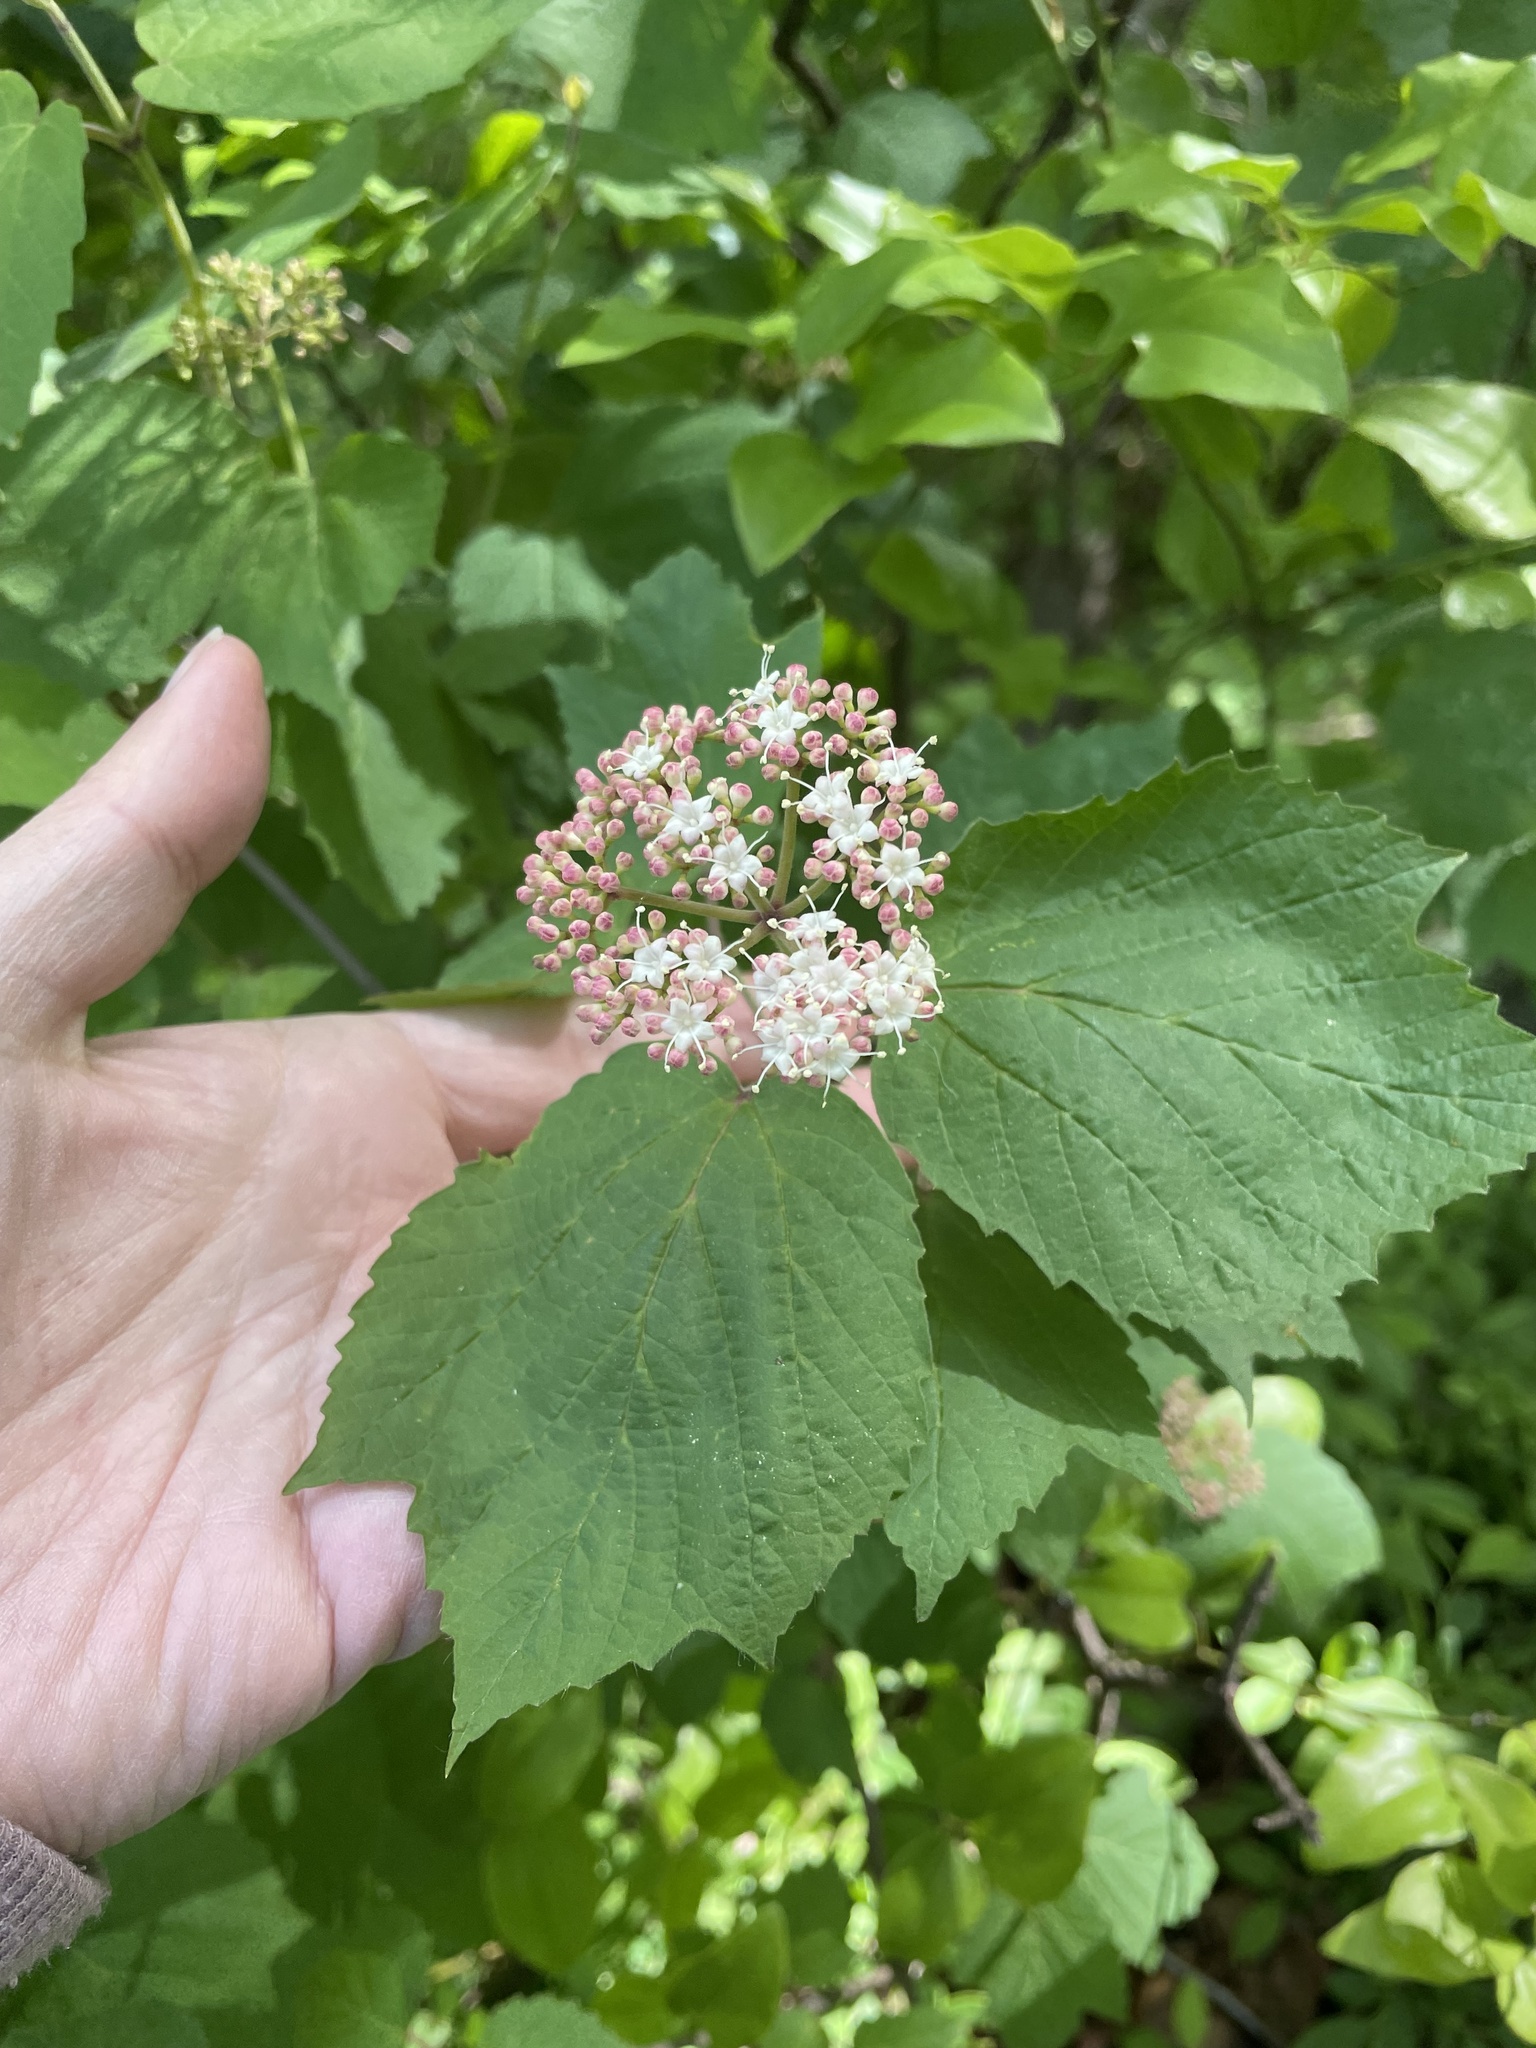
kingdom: Plantae
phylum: Tracheophyta
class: Magnoliopsida
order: Dipsacales
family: Viburnaceae
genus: Viburnum
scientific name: Viburnum acerifolium
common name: Dockmackie
